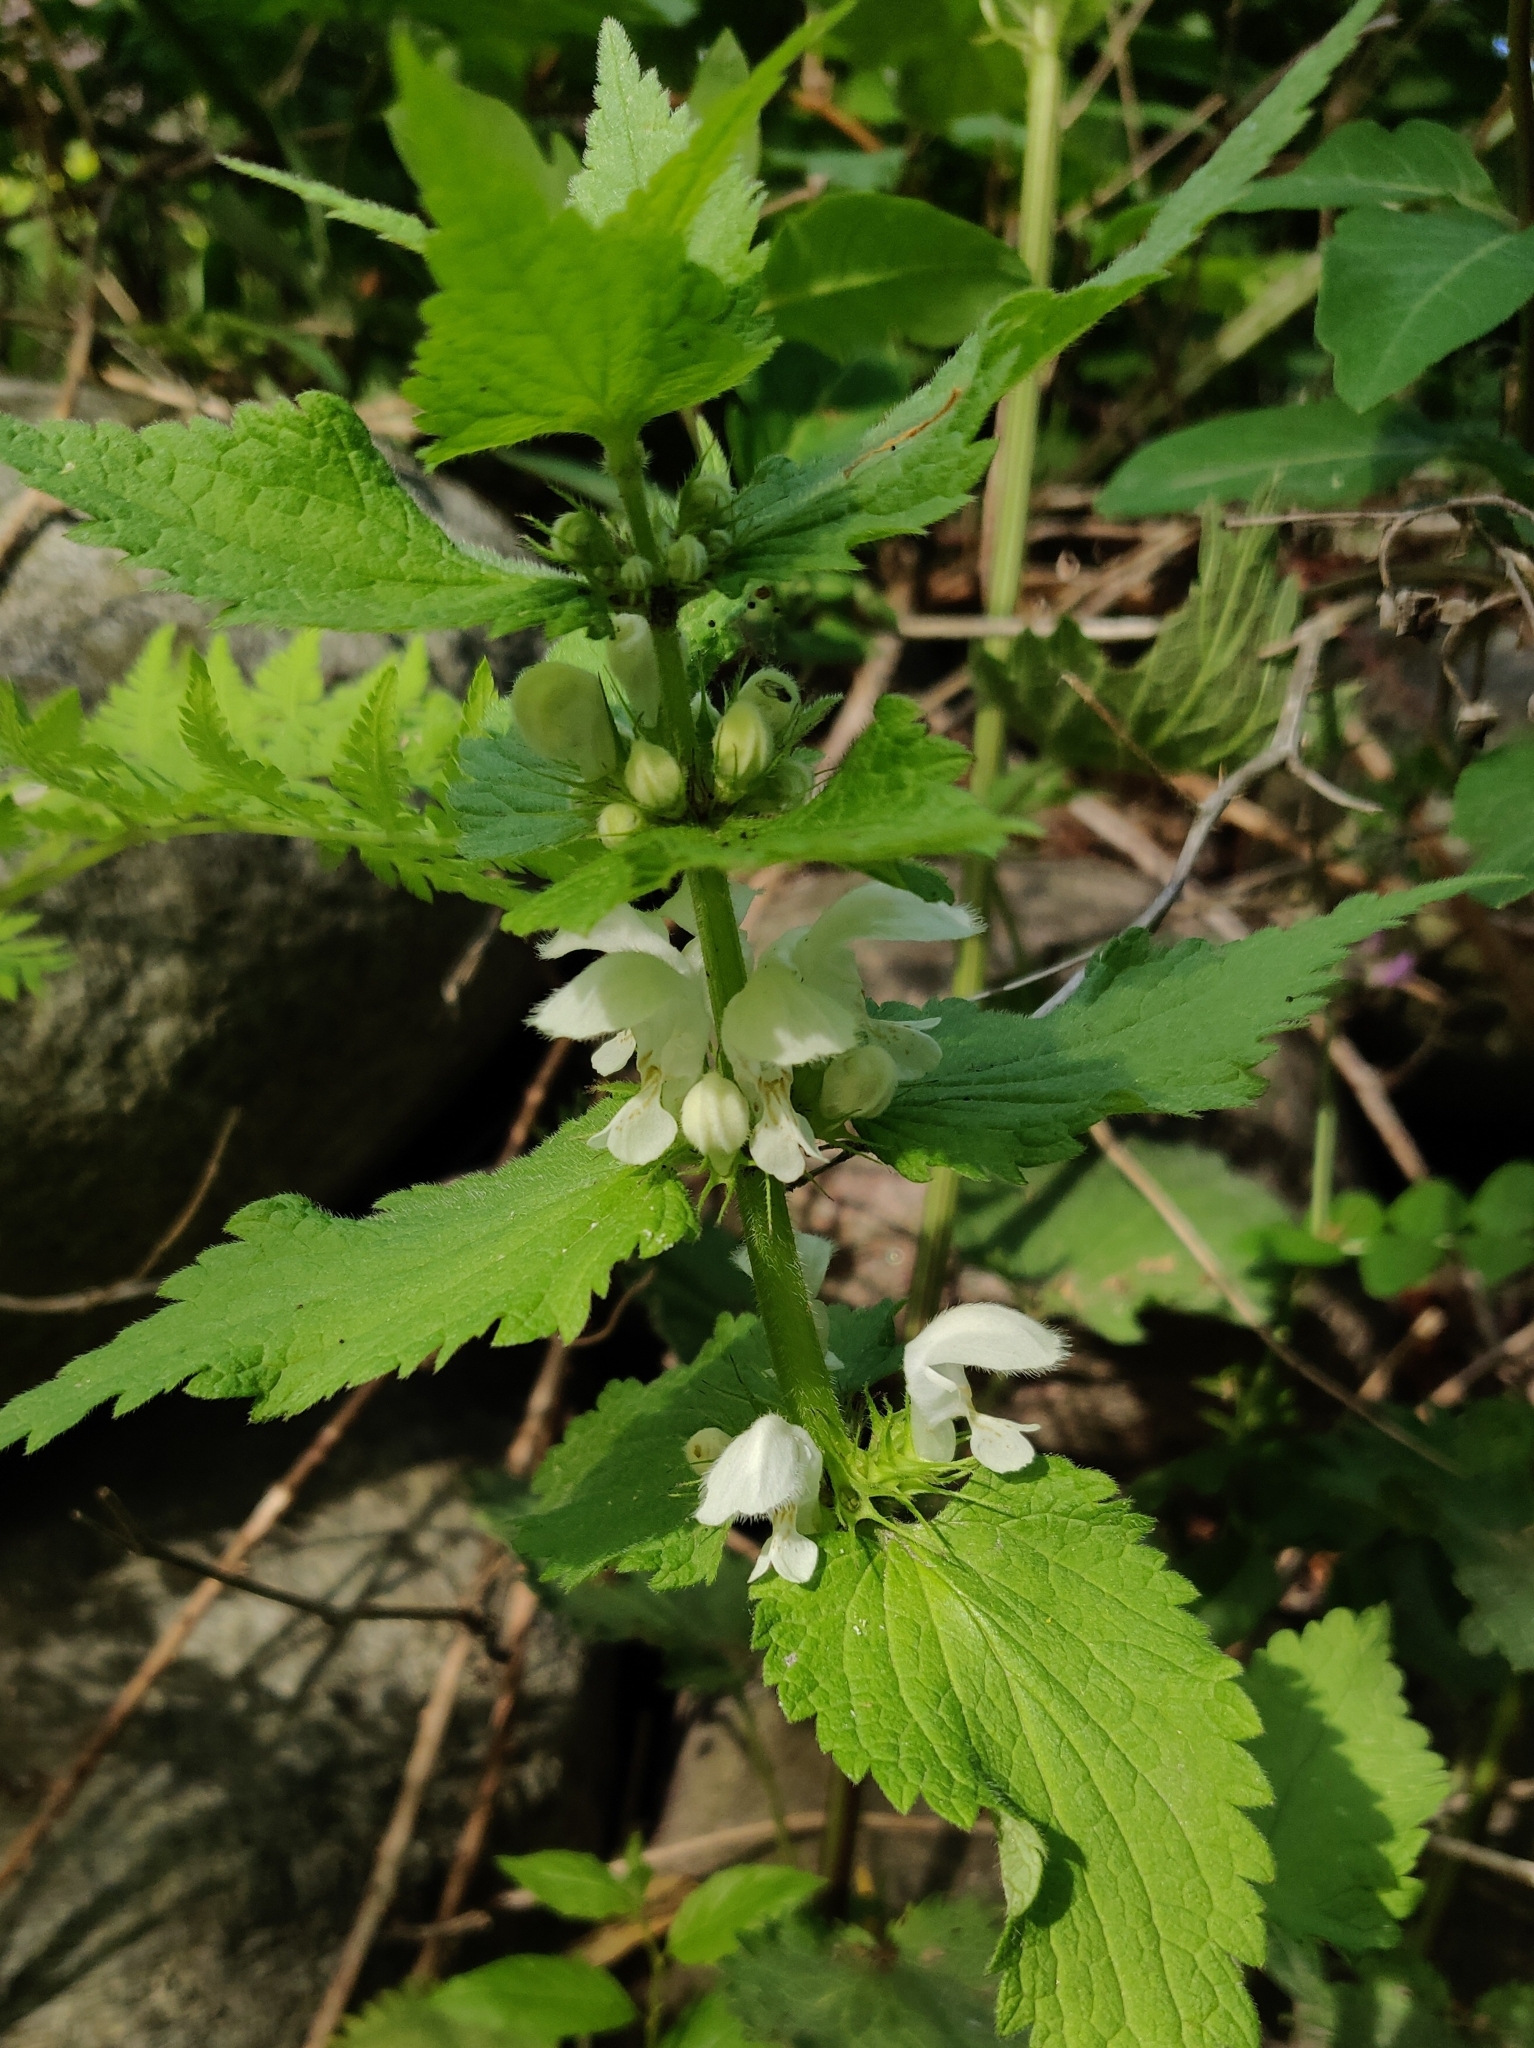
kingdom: Plantae
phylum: Tracheophyta
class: Magnoliopsida
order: Lamiales
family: Lamiaceae
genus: Lamium
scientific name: Lamium album
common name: White dead-nettle
